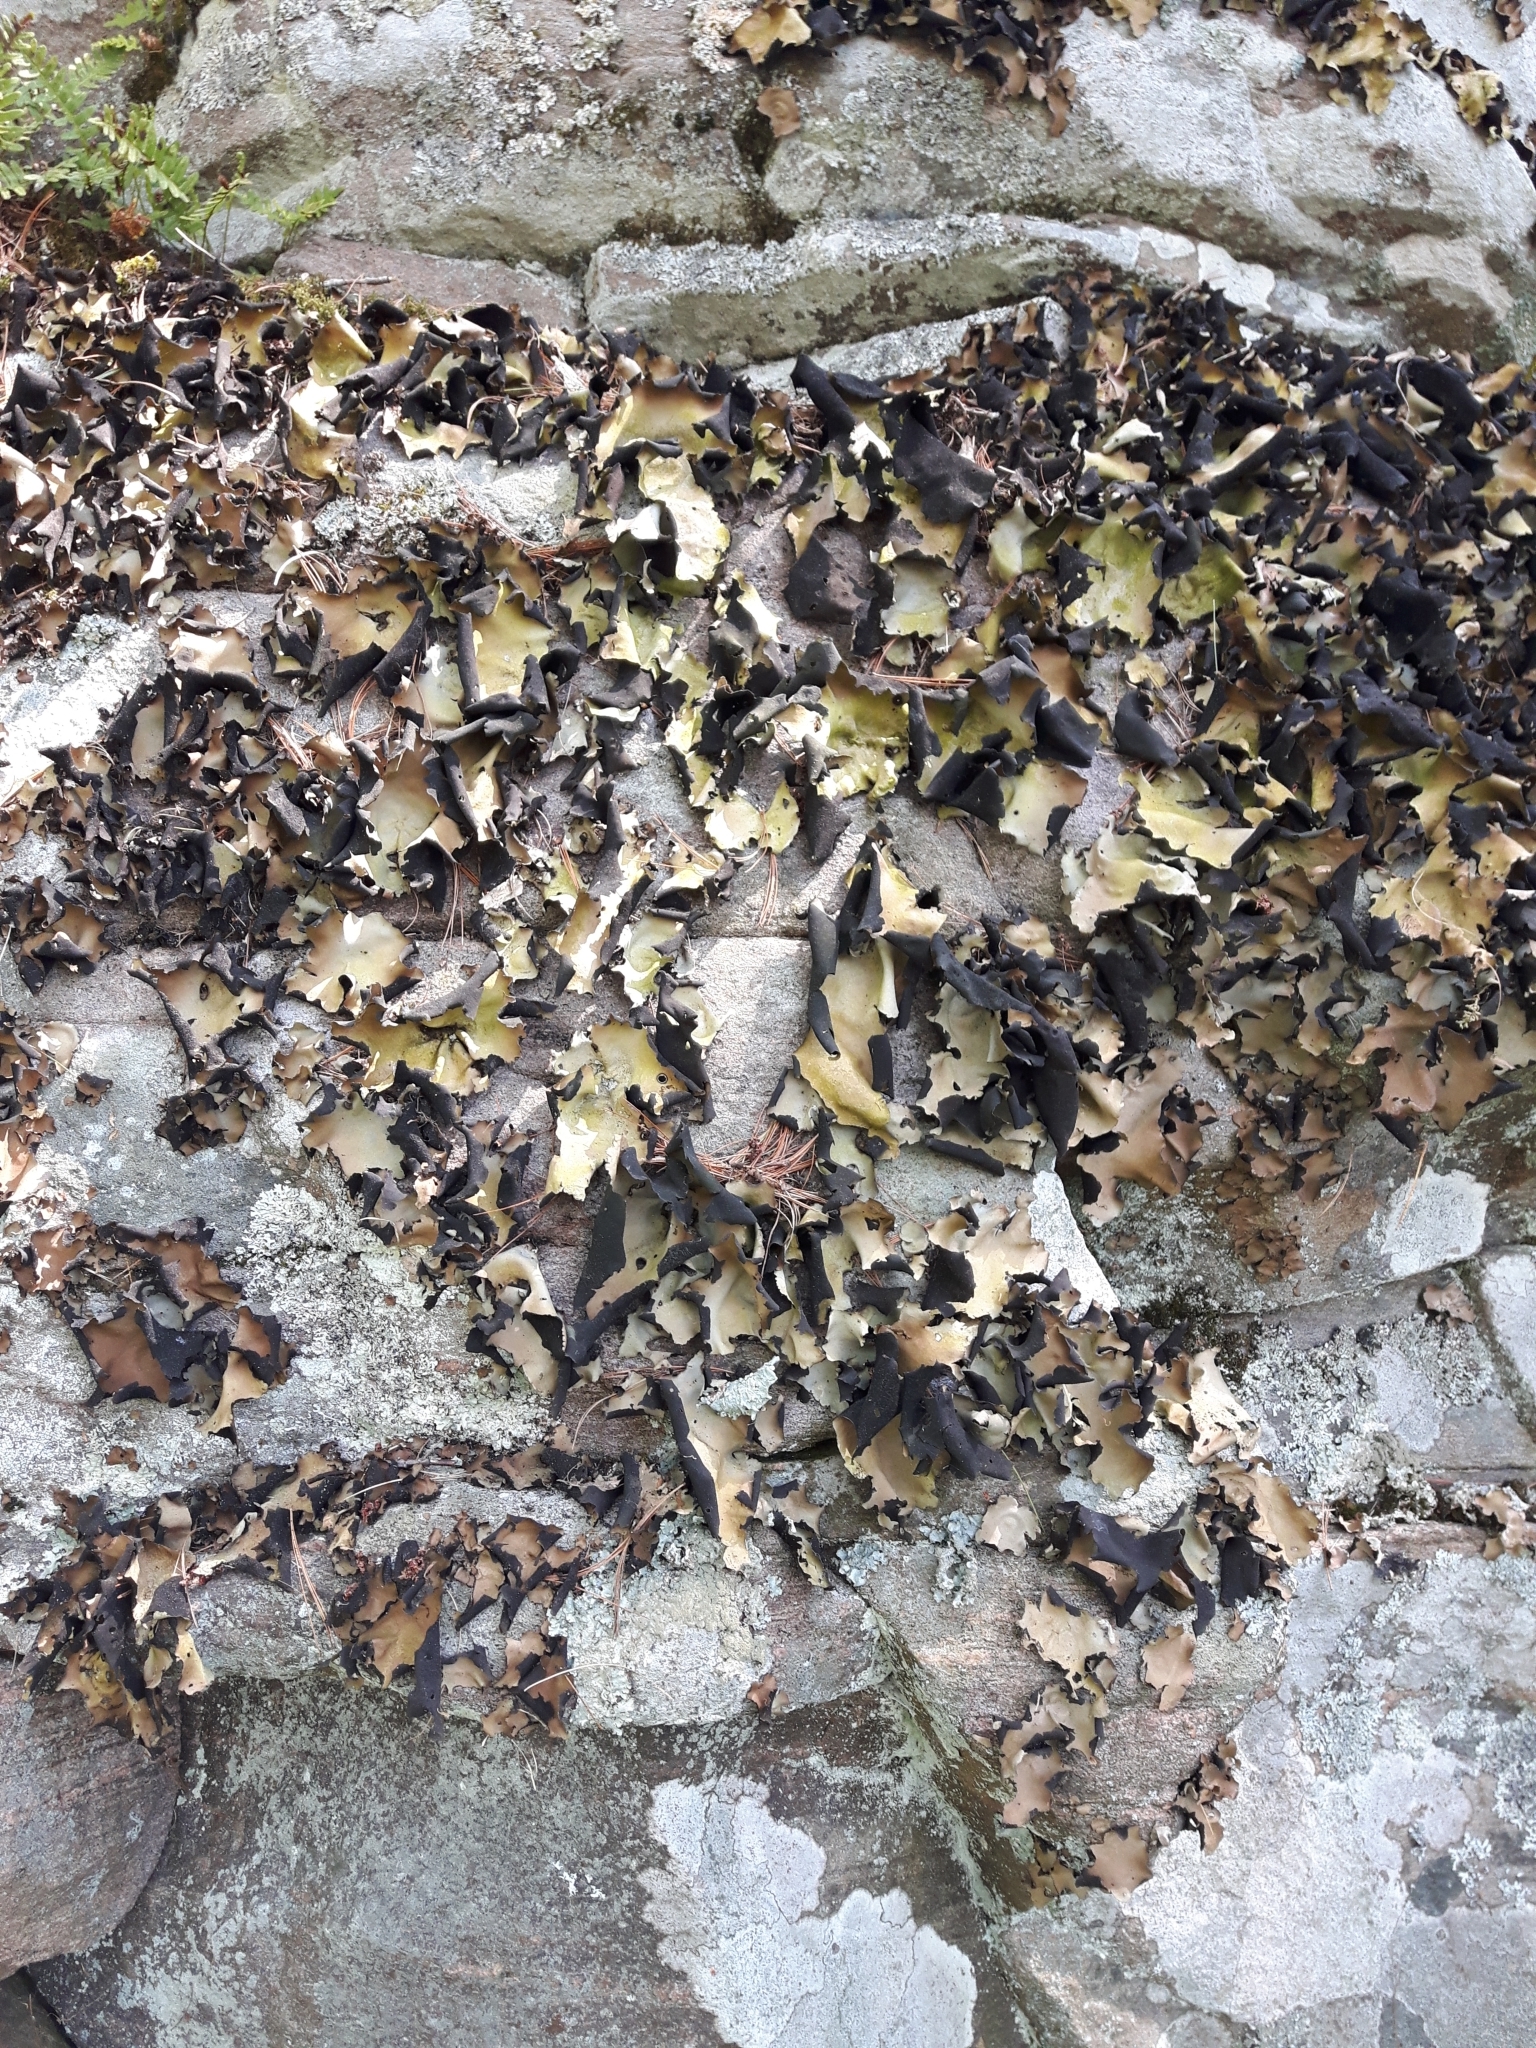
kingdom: Fungi
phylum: Ascomycota
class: Lecanoromycetes
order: Umbilicariales
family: Umbilicariaceae
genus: Umbilicaria
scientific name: Umbilicaria mammulata
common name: Smooth rock tripe
